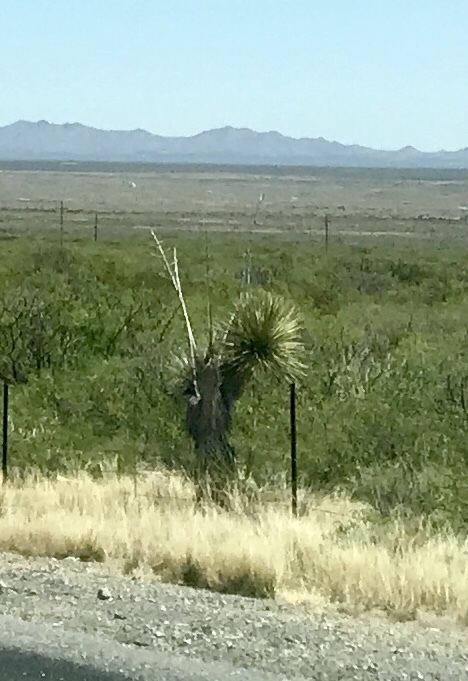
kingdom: Plantae
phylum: Tracheophyta
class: Liliopsida
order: Asparagales
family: Asparagaceae
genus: Yucca
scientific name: Yucca elata
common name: Palmella
